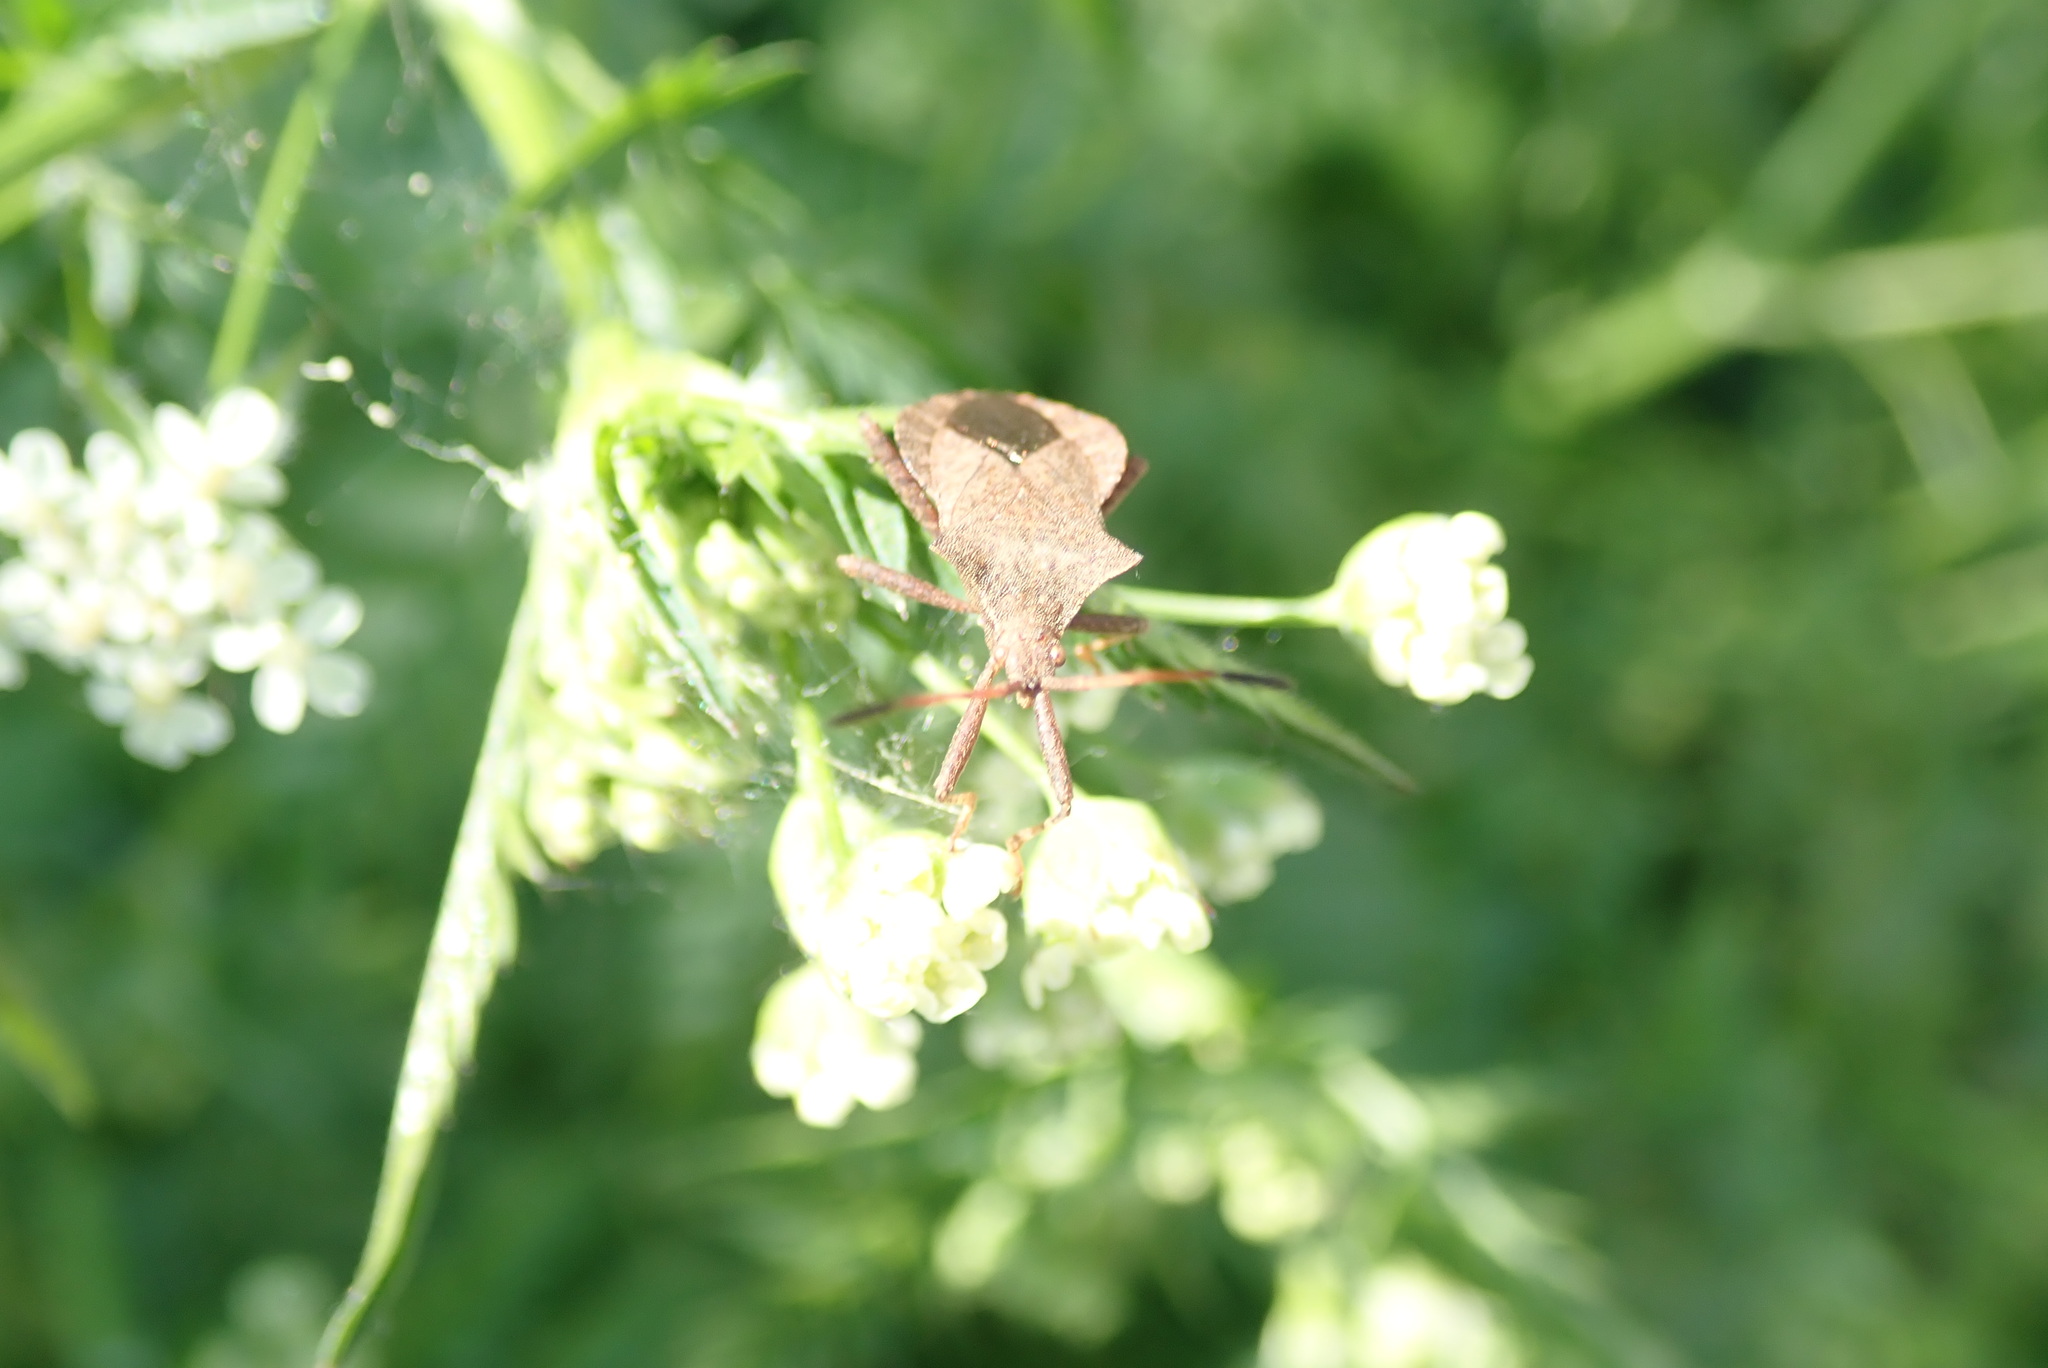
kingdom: Animalia
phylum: Arthropoda
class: Insecta
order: Hemiptera
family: Coreidae
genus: Coreus
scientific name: Coreus marginatus
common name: Dock bug
